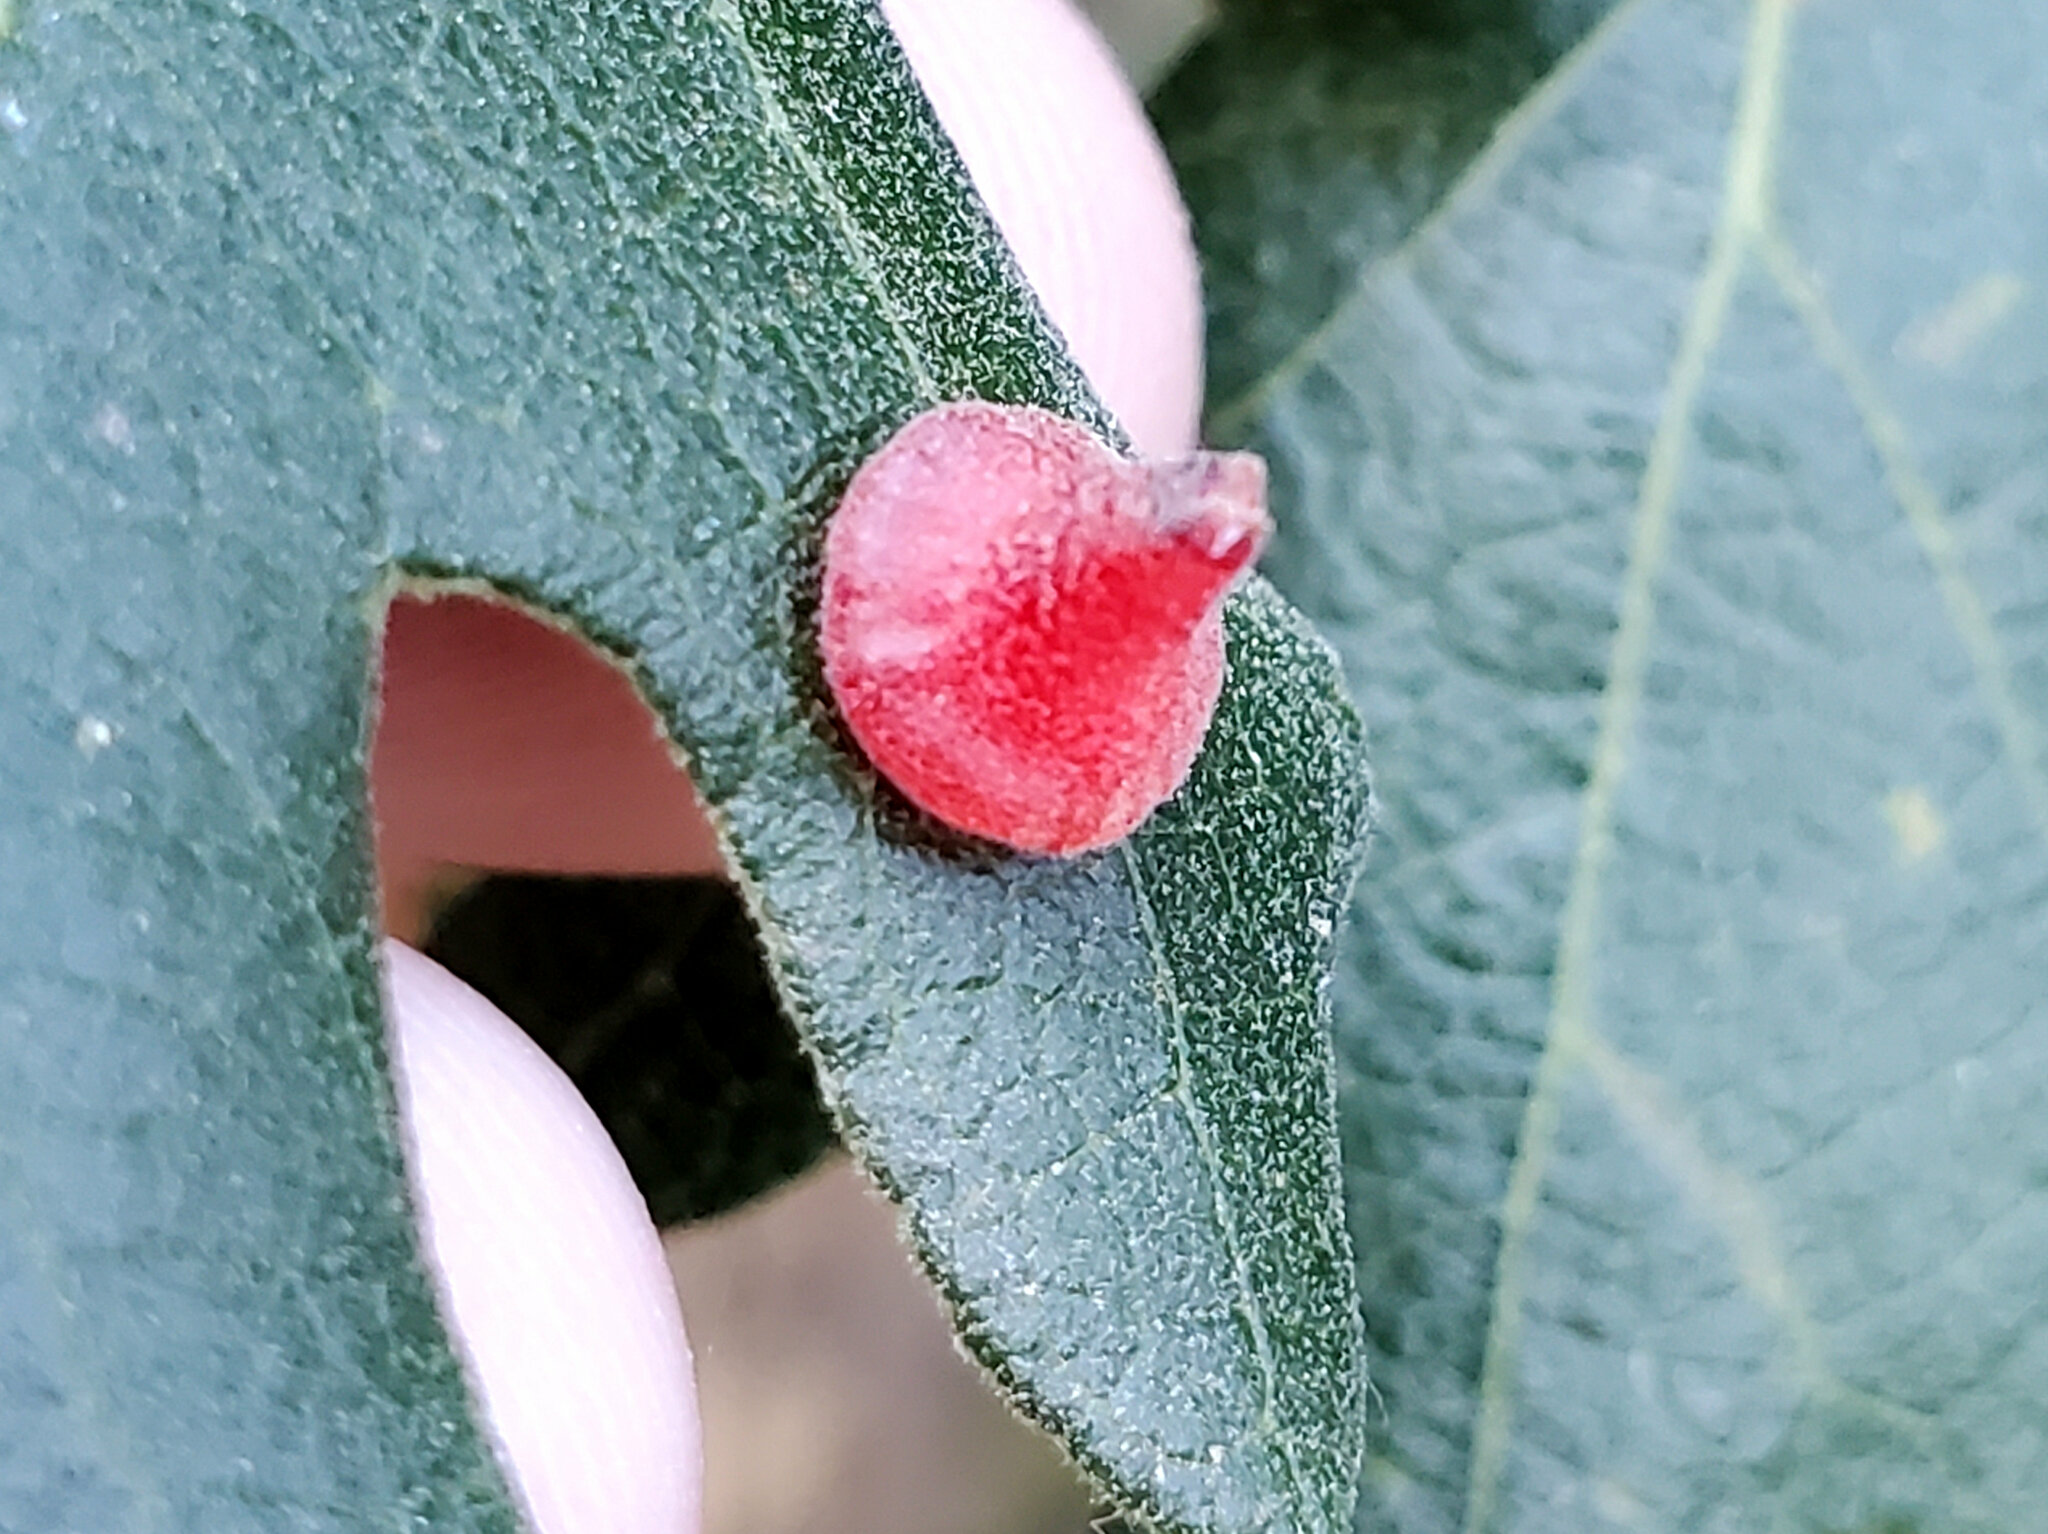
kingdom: Animalia
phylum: Arthropoda
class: Insecta
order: Hymenoptera
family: Cynipidae
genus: Andricus
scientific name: Andricus
